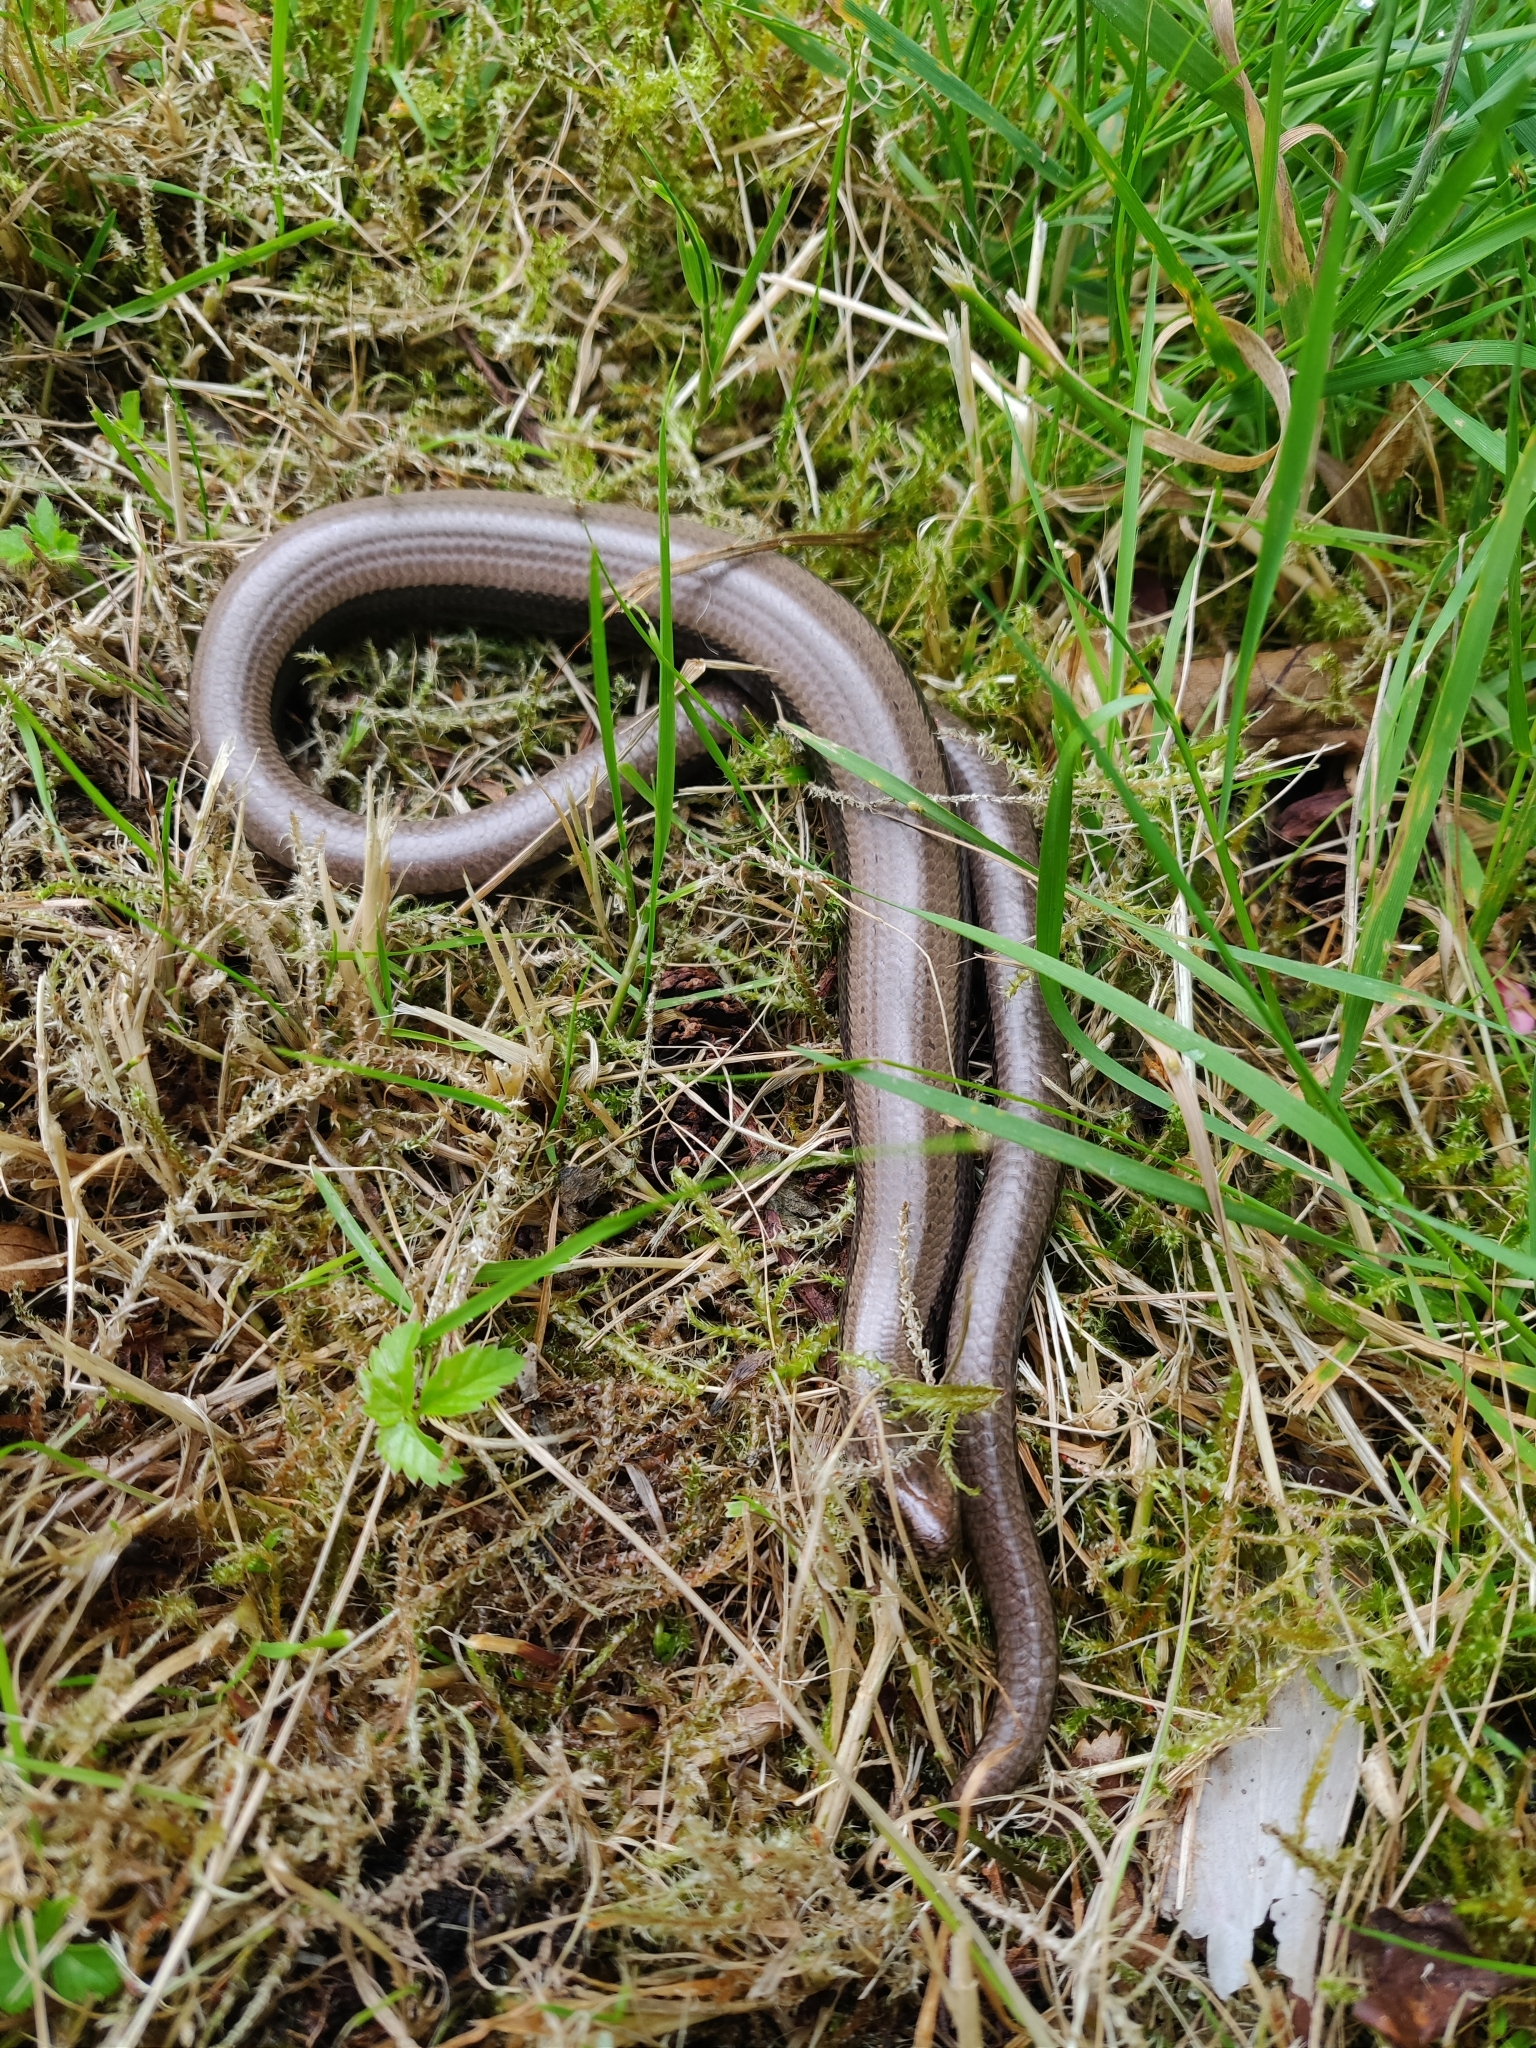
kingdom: Animalia
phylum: Chordata
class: Squamata
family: Anguidae
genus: Anguis
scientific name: Anguis fragilis
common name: Slow worm
